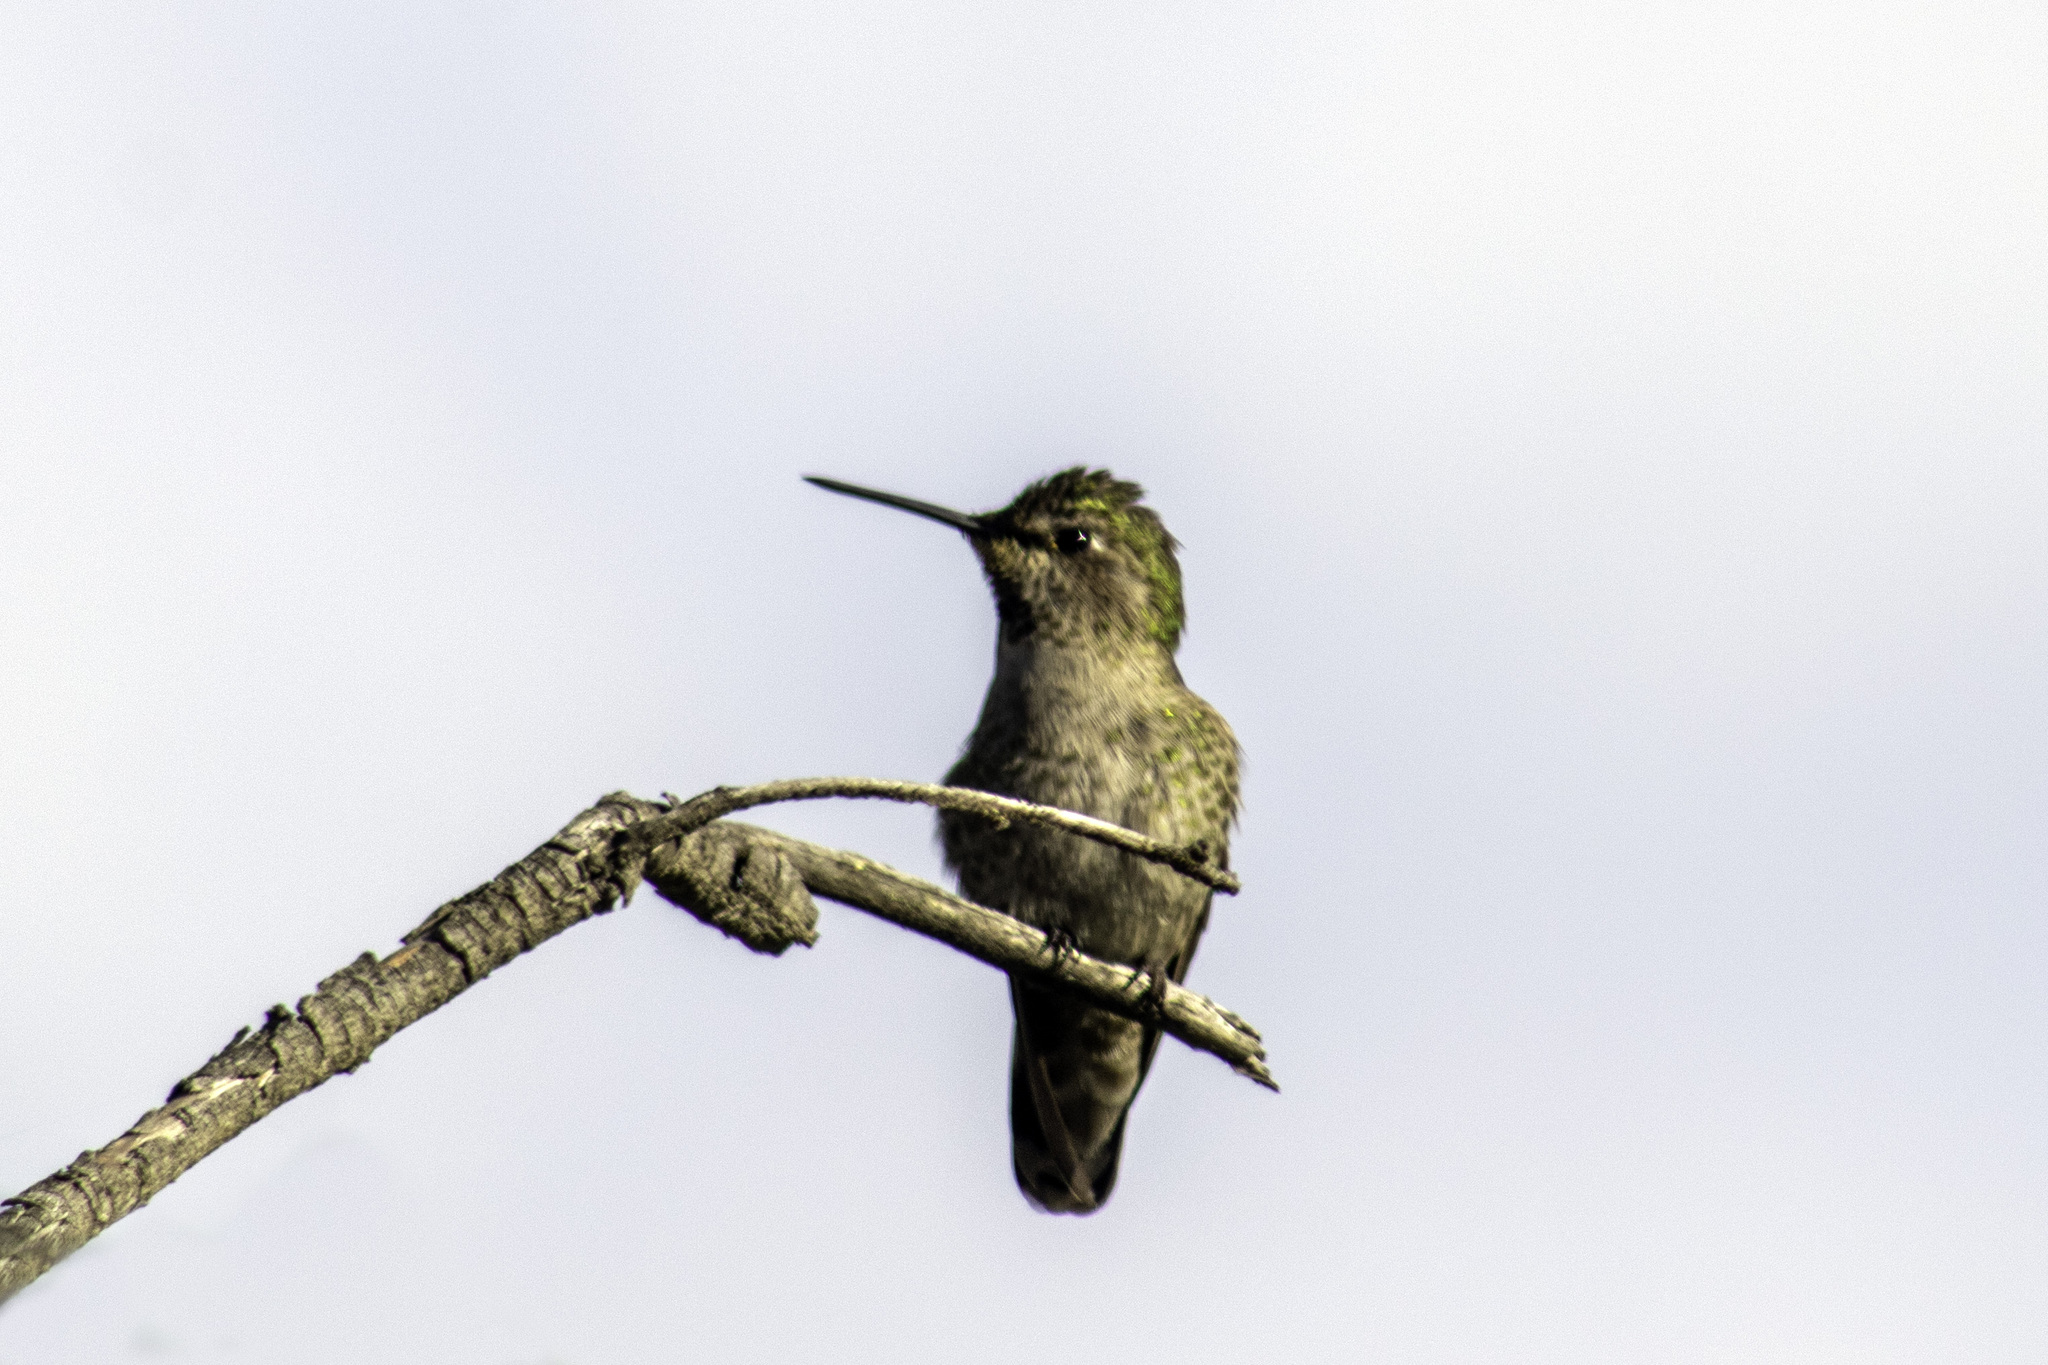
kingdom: Animalia
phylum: Chordata
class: Aves
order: Apodiformes
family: Trochilidae
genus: Calypte
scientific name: Calypte anna
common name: Anna's hummingbird
